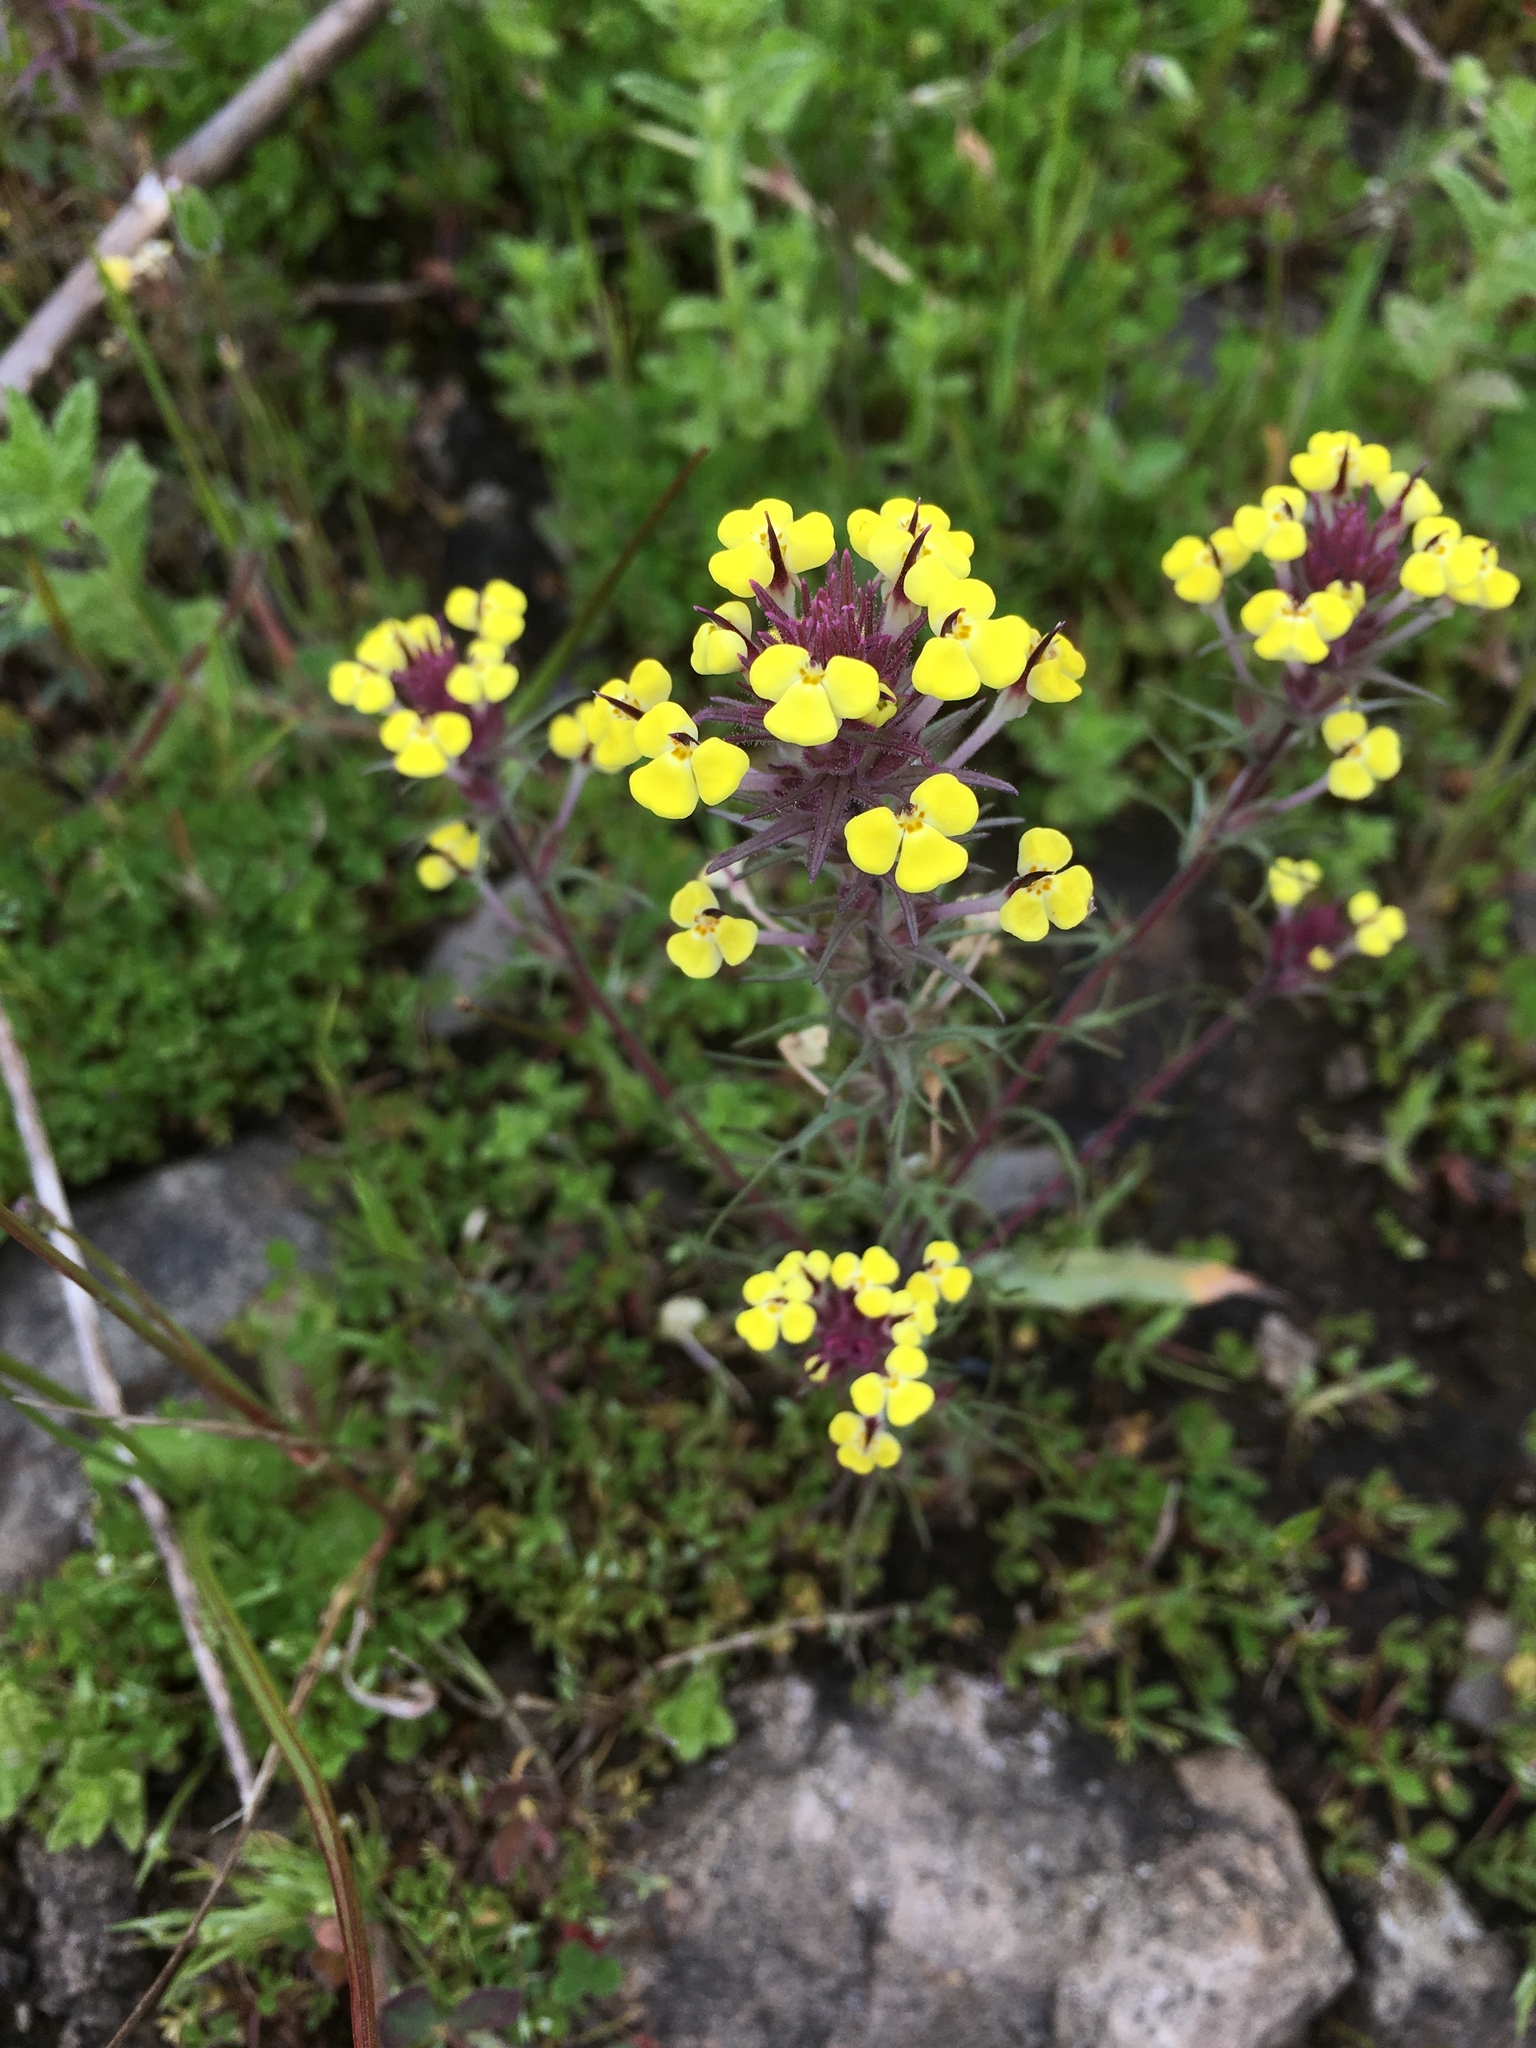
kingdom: Plantae
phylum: Tracheophyta
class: Magnoliopsida
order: Lamiales
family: Orobanchaceae
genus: Triphysaria
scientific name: Triphysaria eriantha
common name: Johnny-tuck
